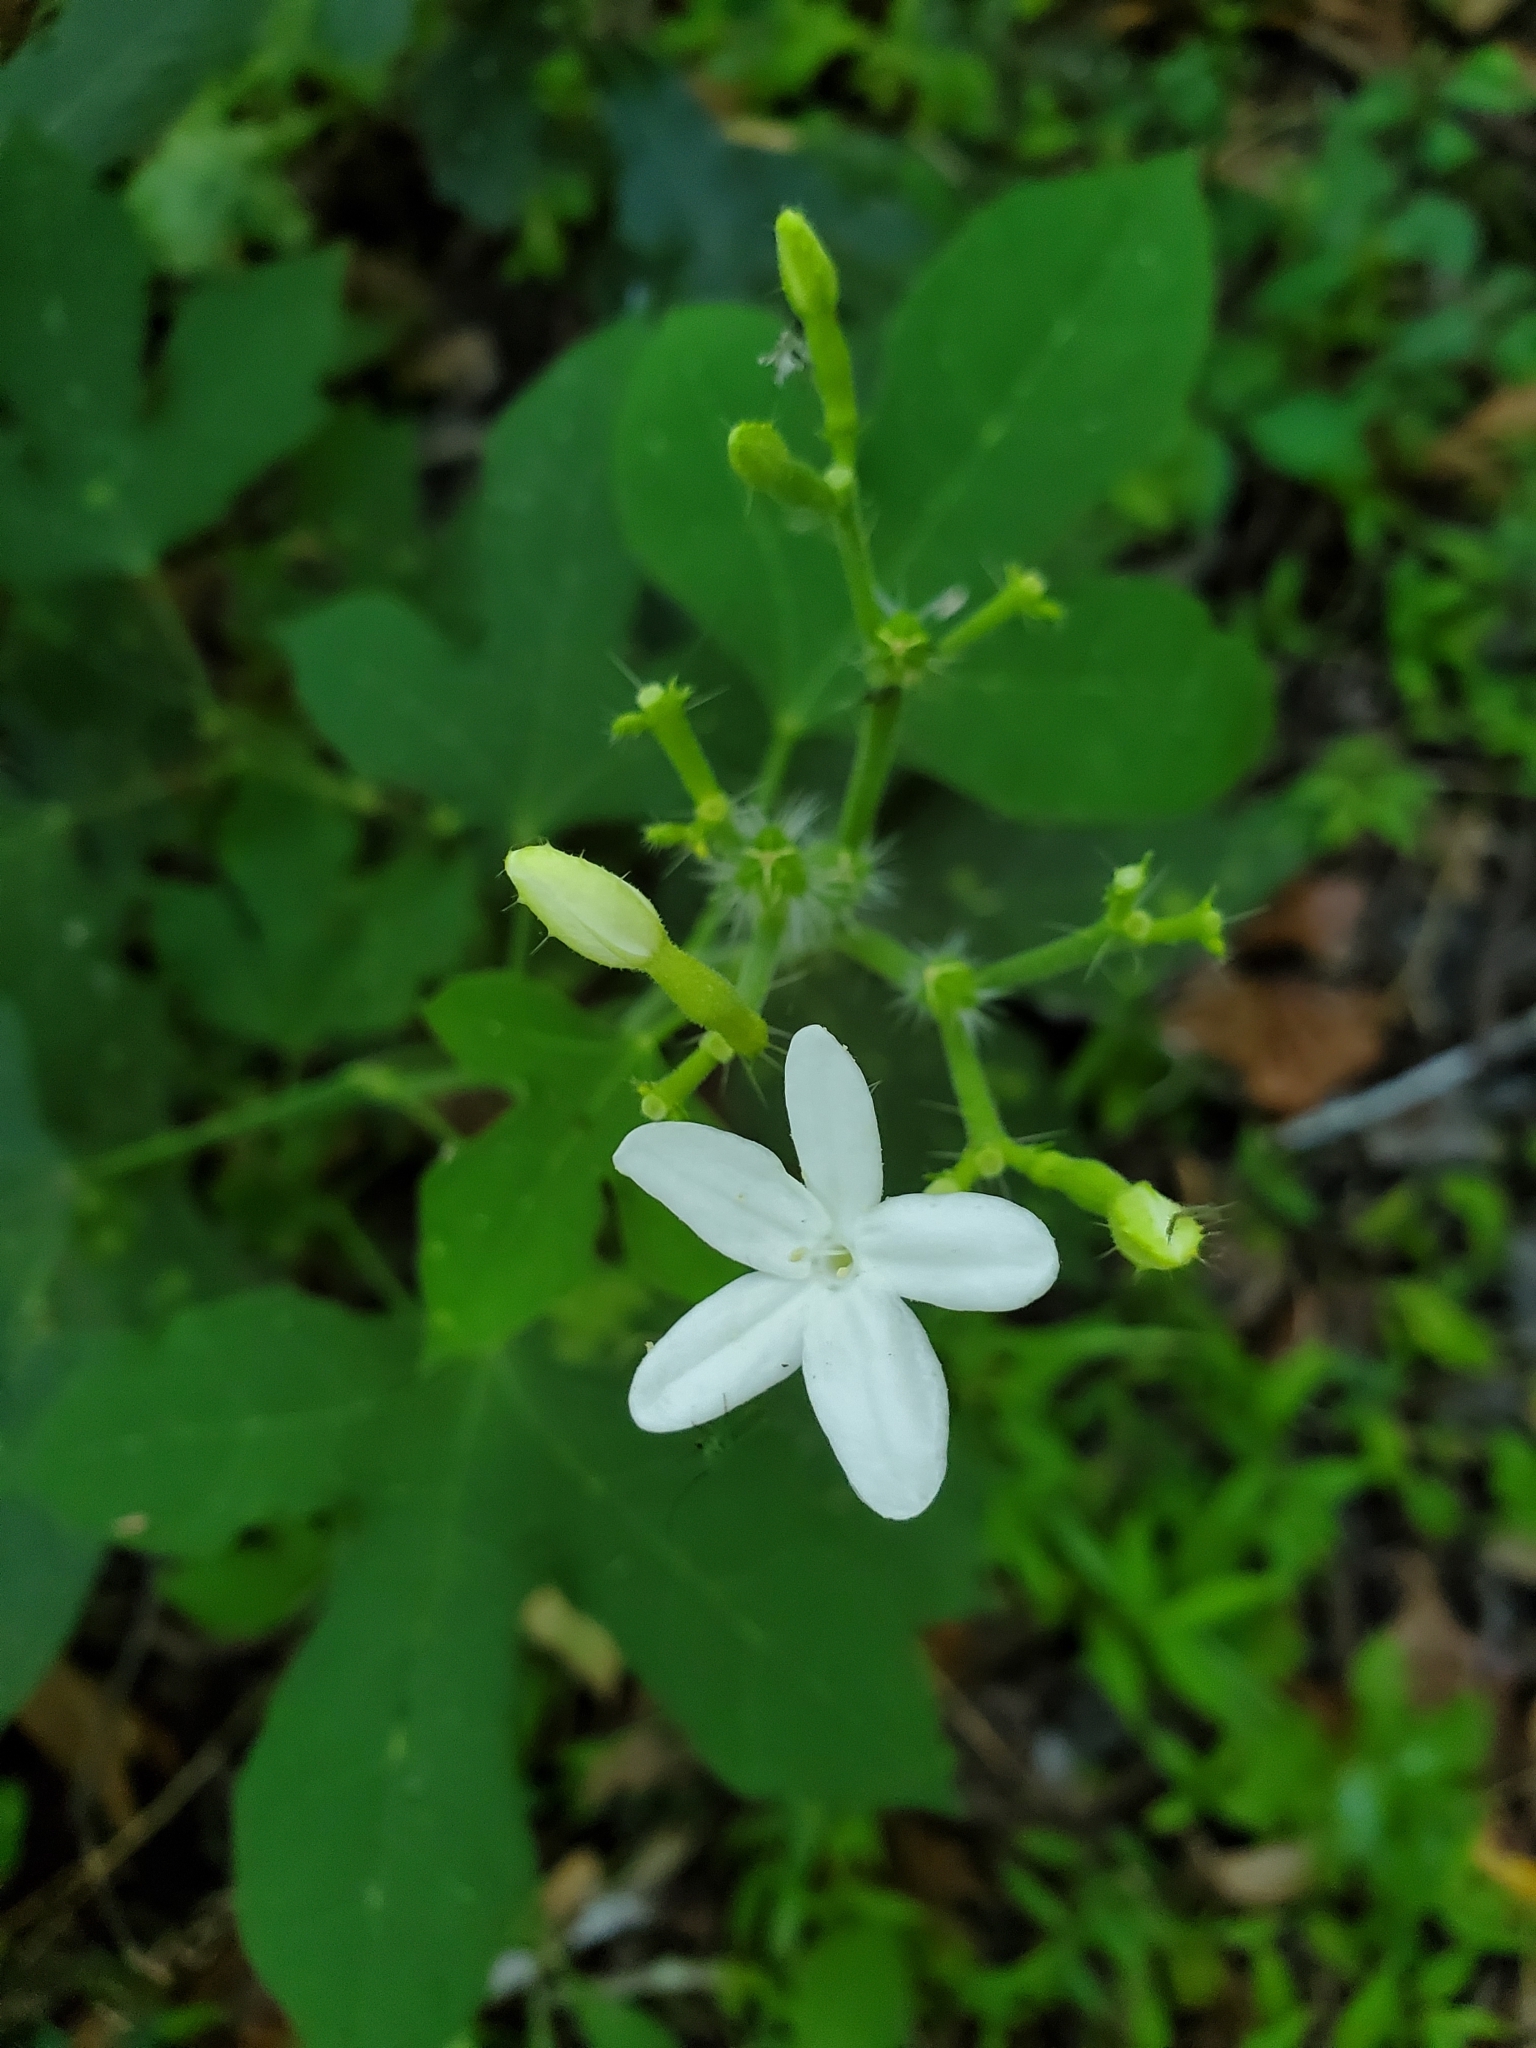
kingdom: Plantae
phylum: Tracheophyta
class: Magnoliopsida
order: Malpighiales
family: Euphorbiaceae
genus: Cnidoscolus
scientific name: Cnidoscolus stimulosus
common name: Bull-nettle
